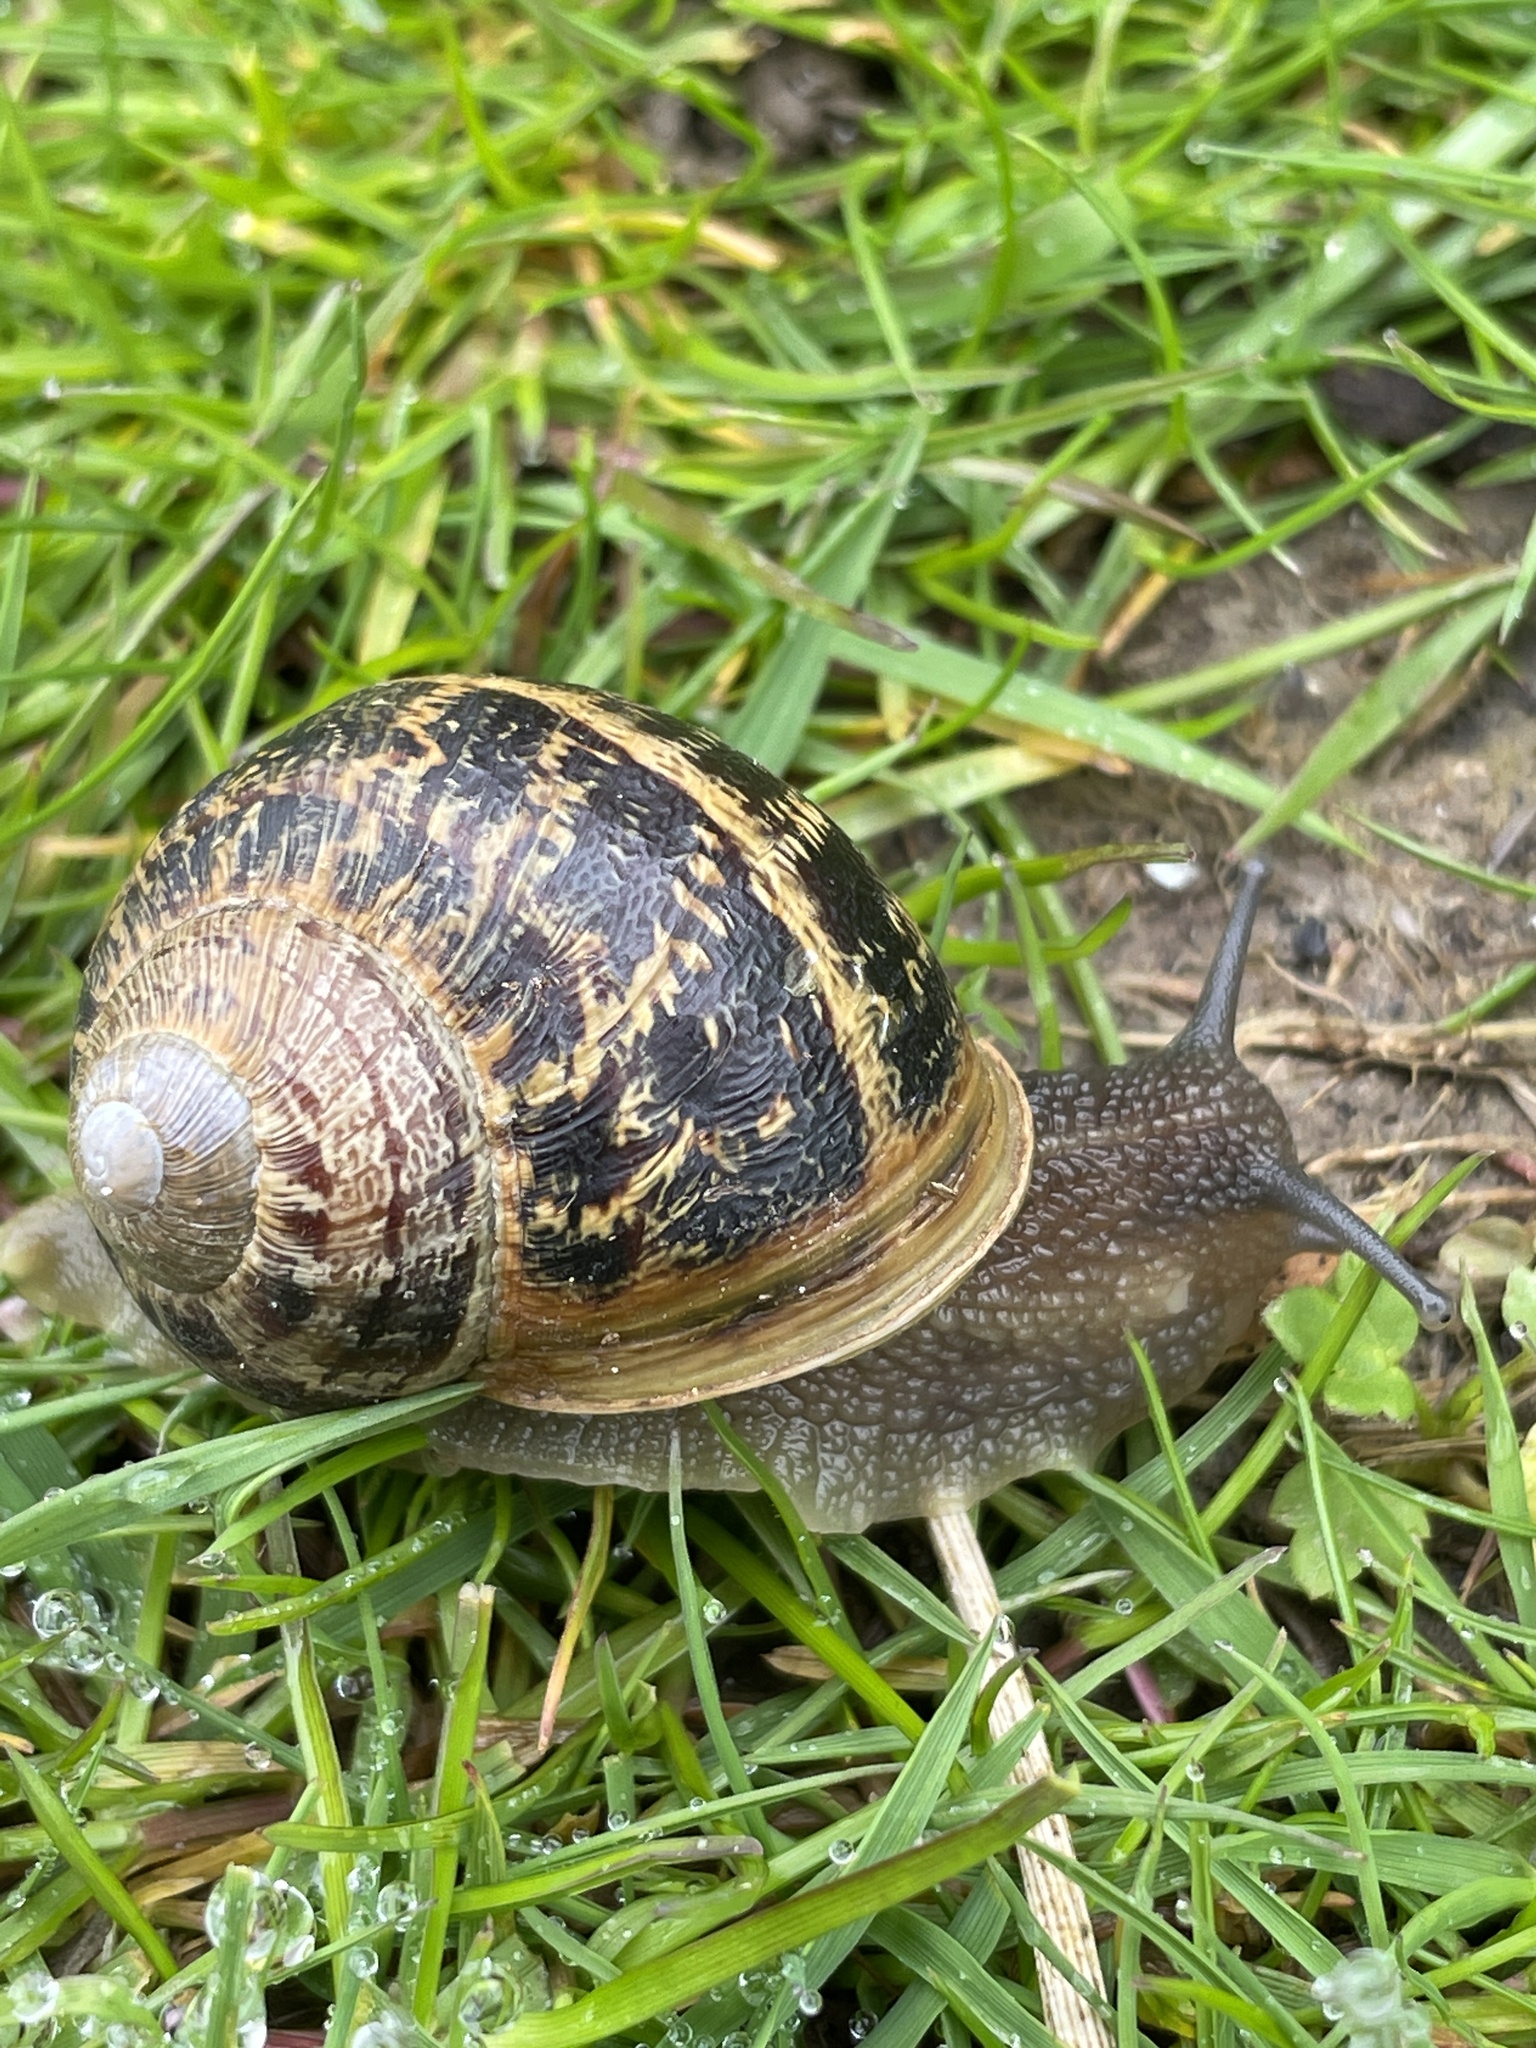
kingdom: Animalia
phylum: Mollusca
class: Gastropoda
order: Stylommatophora
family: Helicidae
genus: Cornu
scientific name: Cornu aspersum
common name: Brown garden snail
